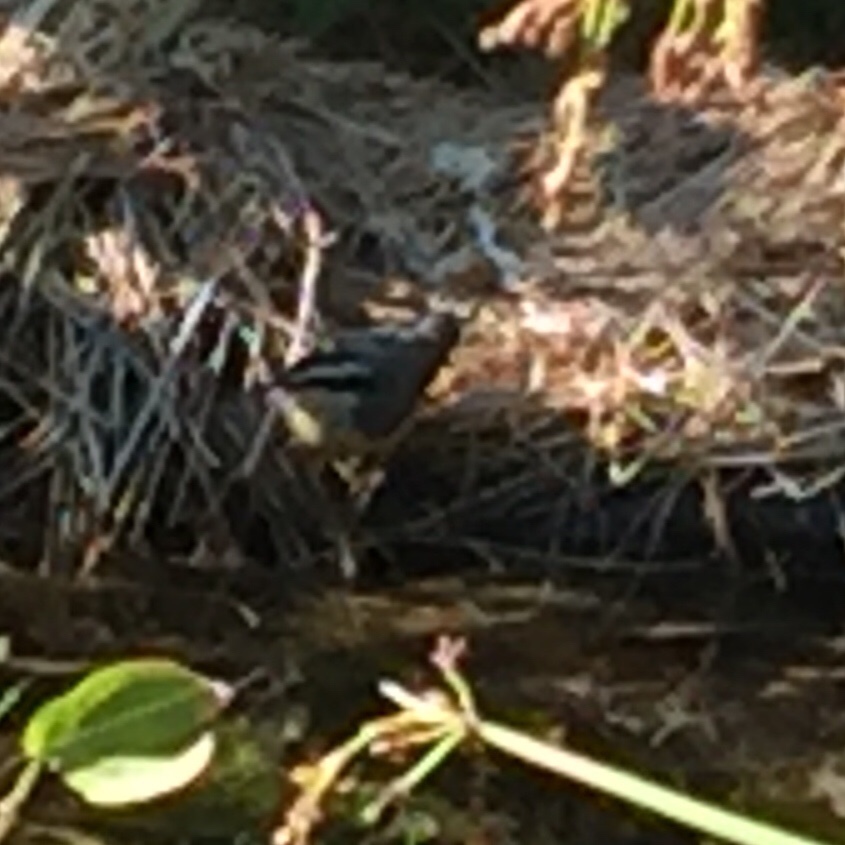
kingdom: Animalia
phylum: Chordata
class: Aves
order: Passeriformes
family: Sittidae
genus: Sitta
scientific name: Sitta canadensis
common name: Red-breasted nuthatch
